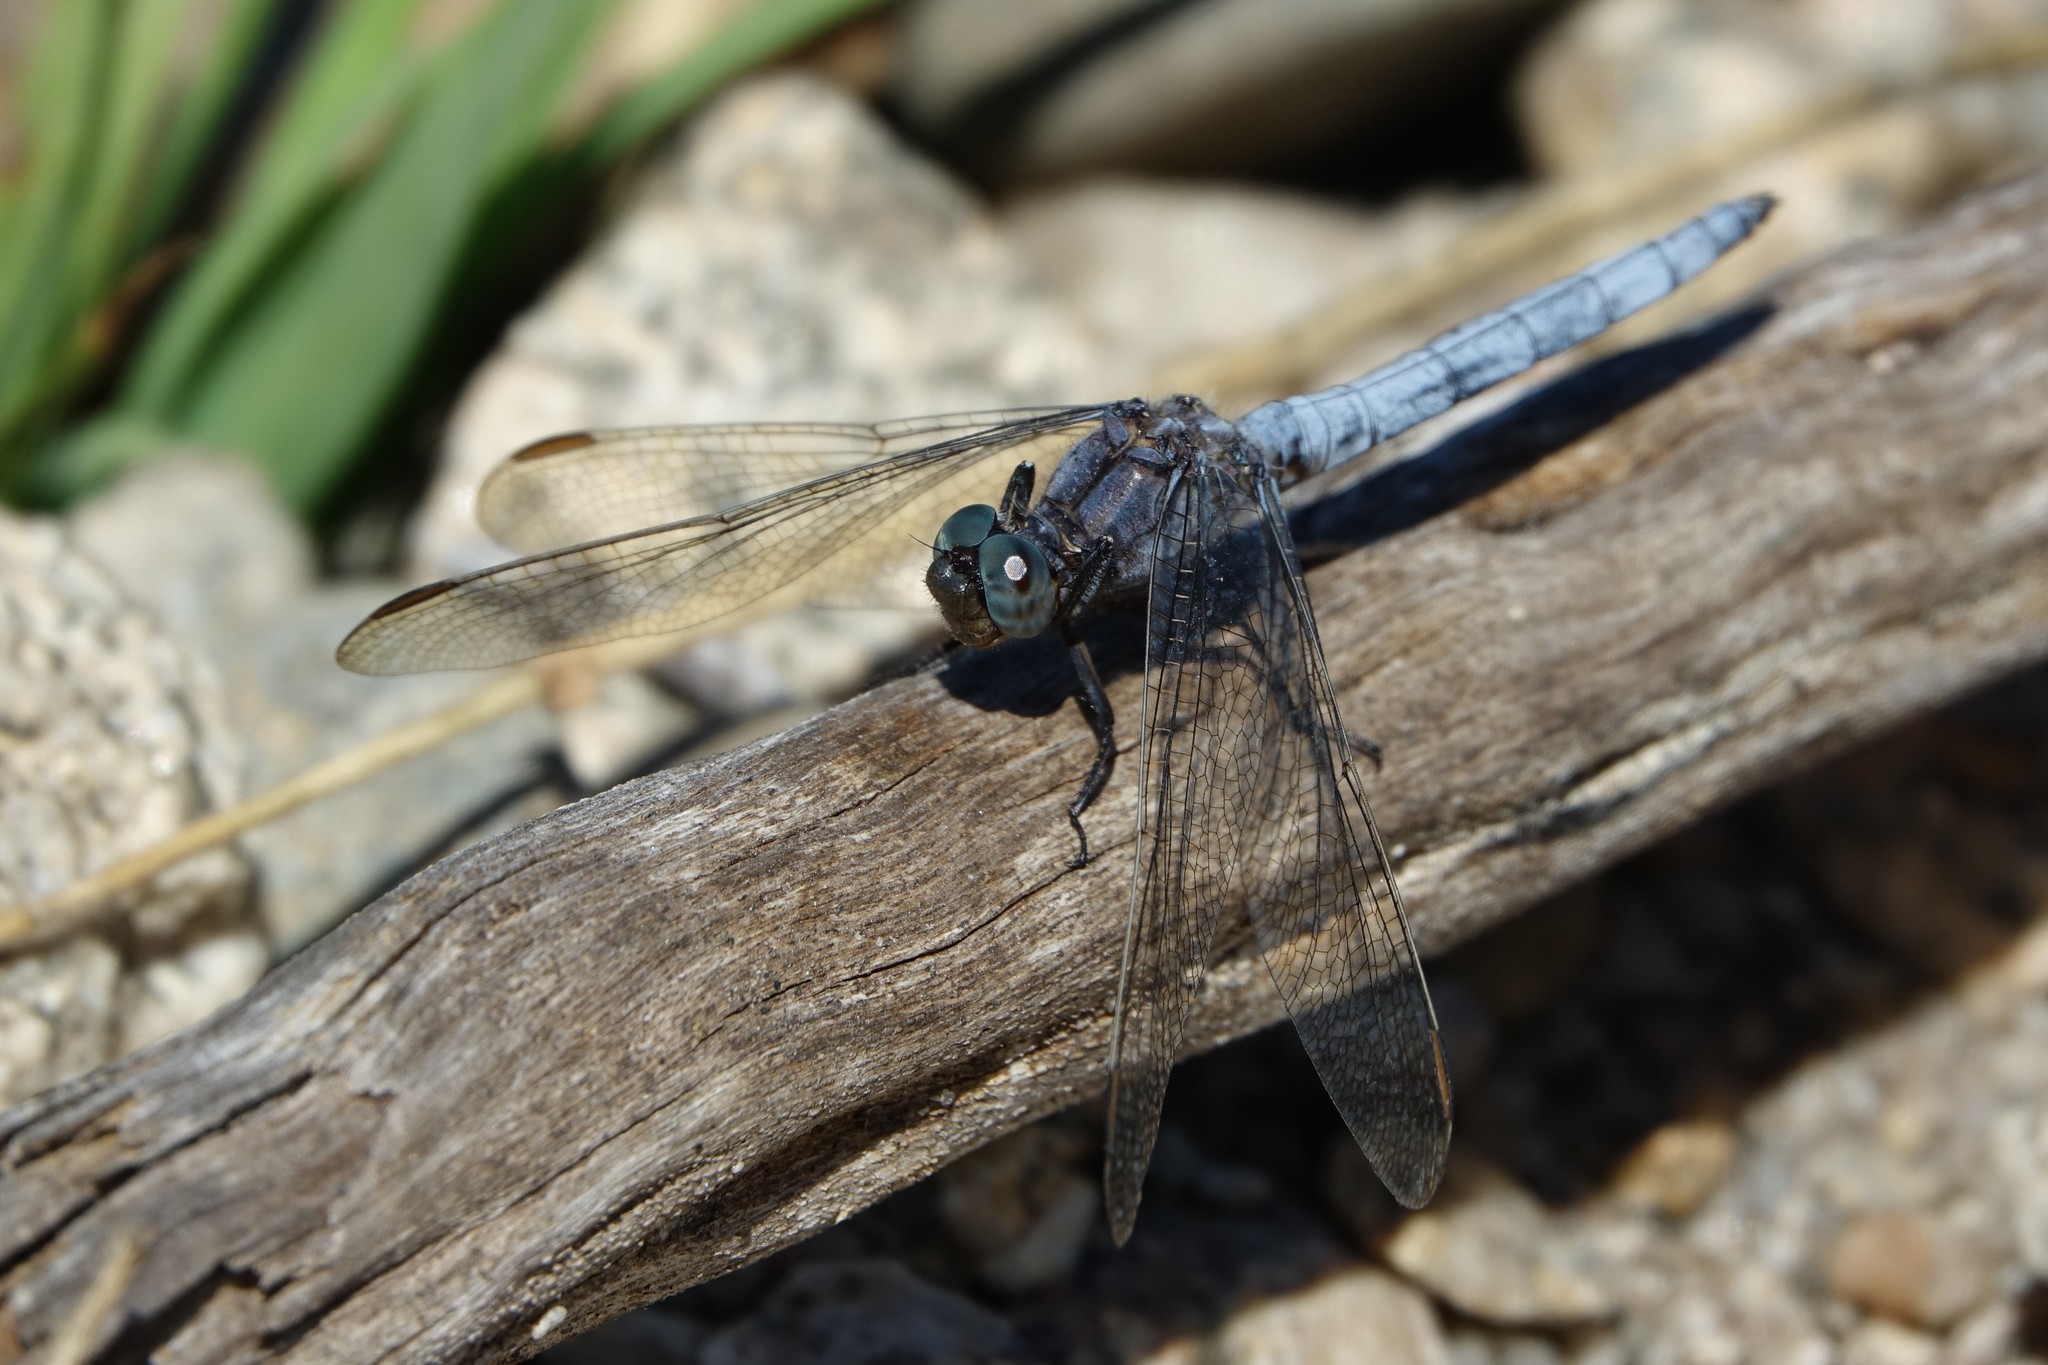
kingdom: Animalia
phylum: Arthropoda
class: Insecta
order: Odonata
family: Libellulidae
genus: Orthetrum
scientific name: Orthetrum coerulescens
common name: Keeled skimmer
